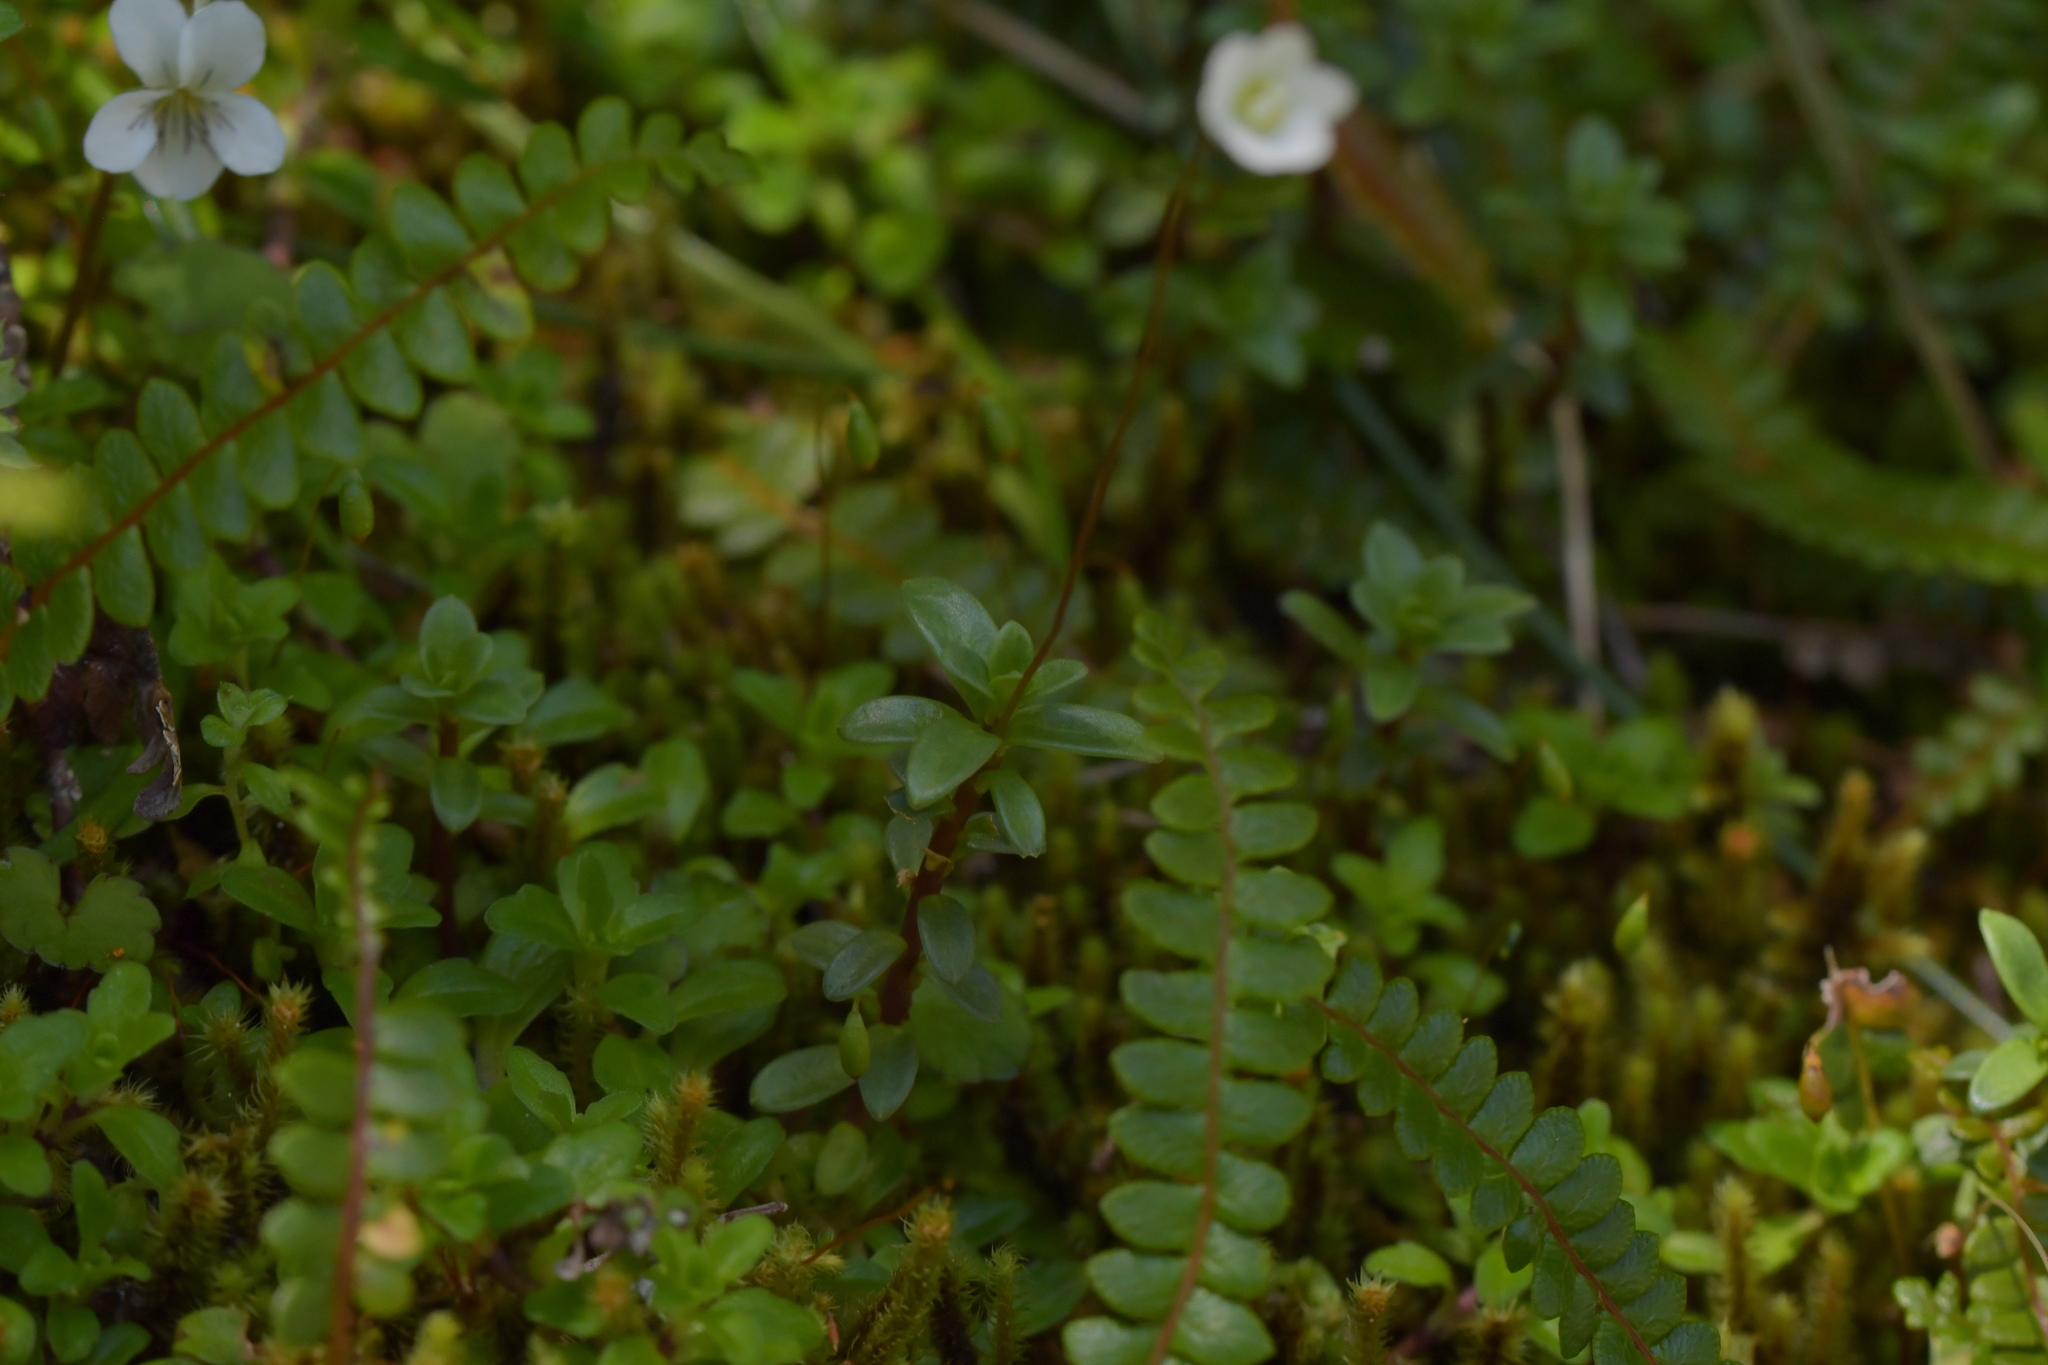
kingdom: Plantae
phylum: Tracheophyta
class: Magnoliopsida
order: Asterales
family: Stylidiaceae
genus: Forstera
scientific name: Forstera tenella
